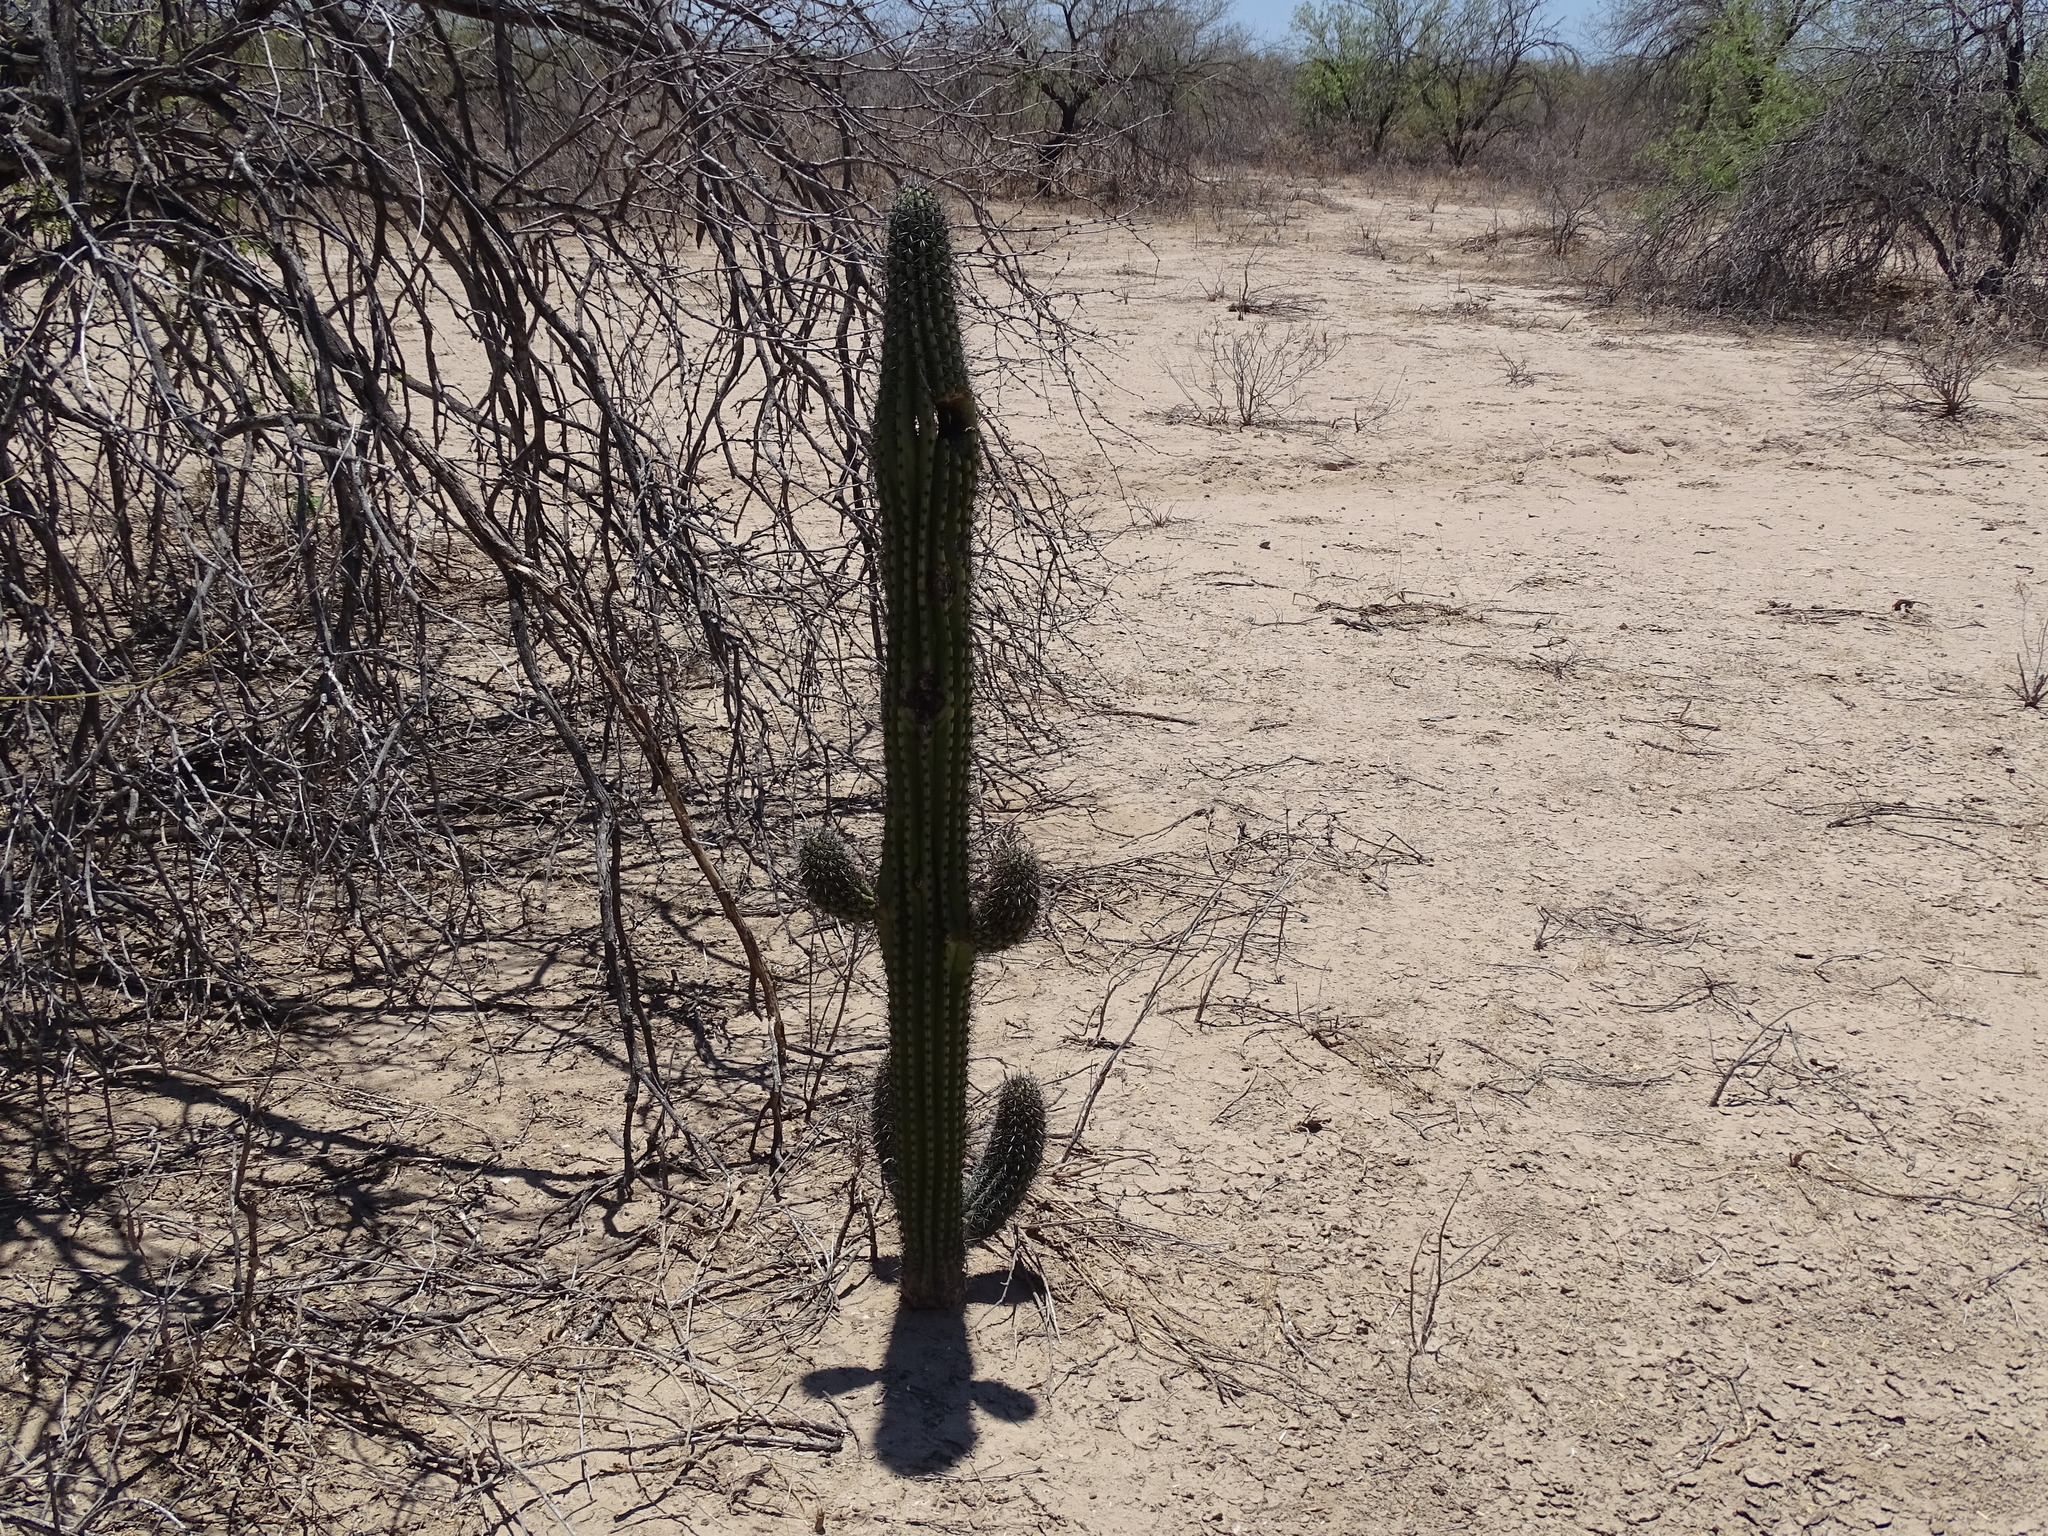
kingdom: Plantae
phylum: Tracheophyta
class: Magnoliopsida
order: Caryophyllales
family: Cactaceae
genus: Stenocereus
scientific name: Stenocereus thurberi
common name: Organ pipe cactus
